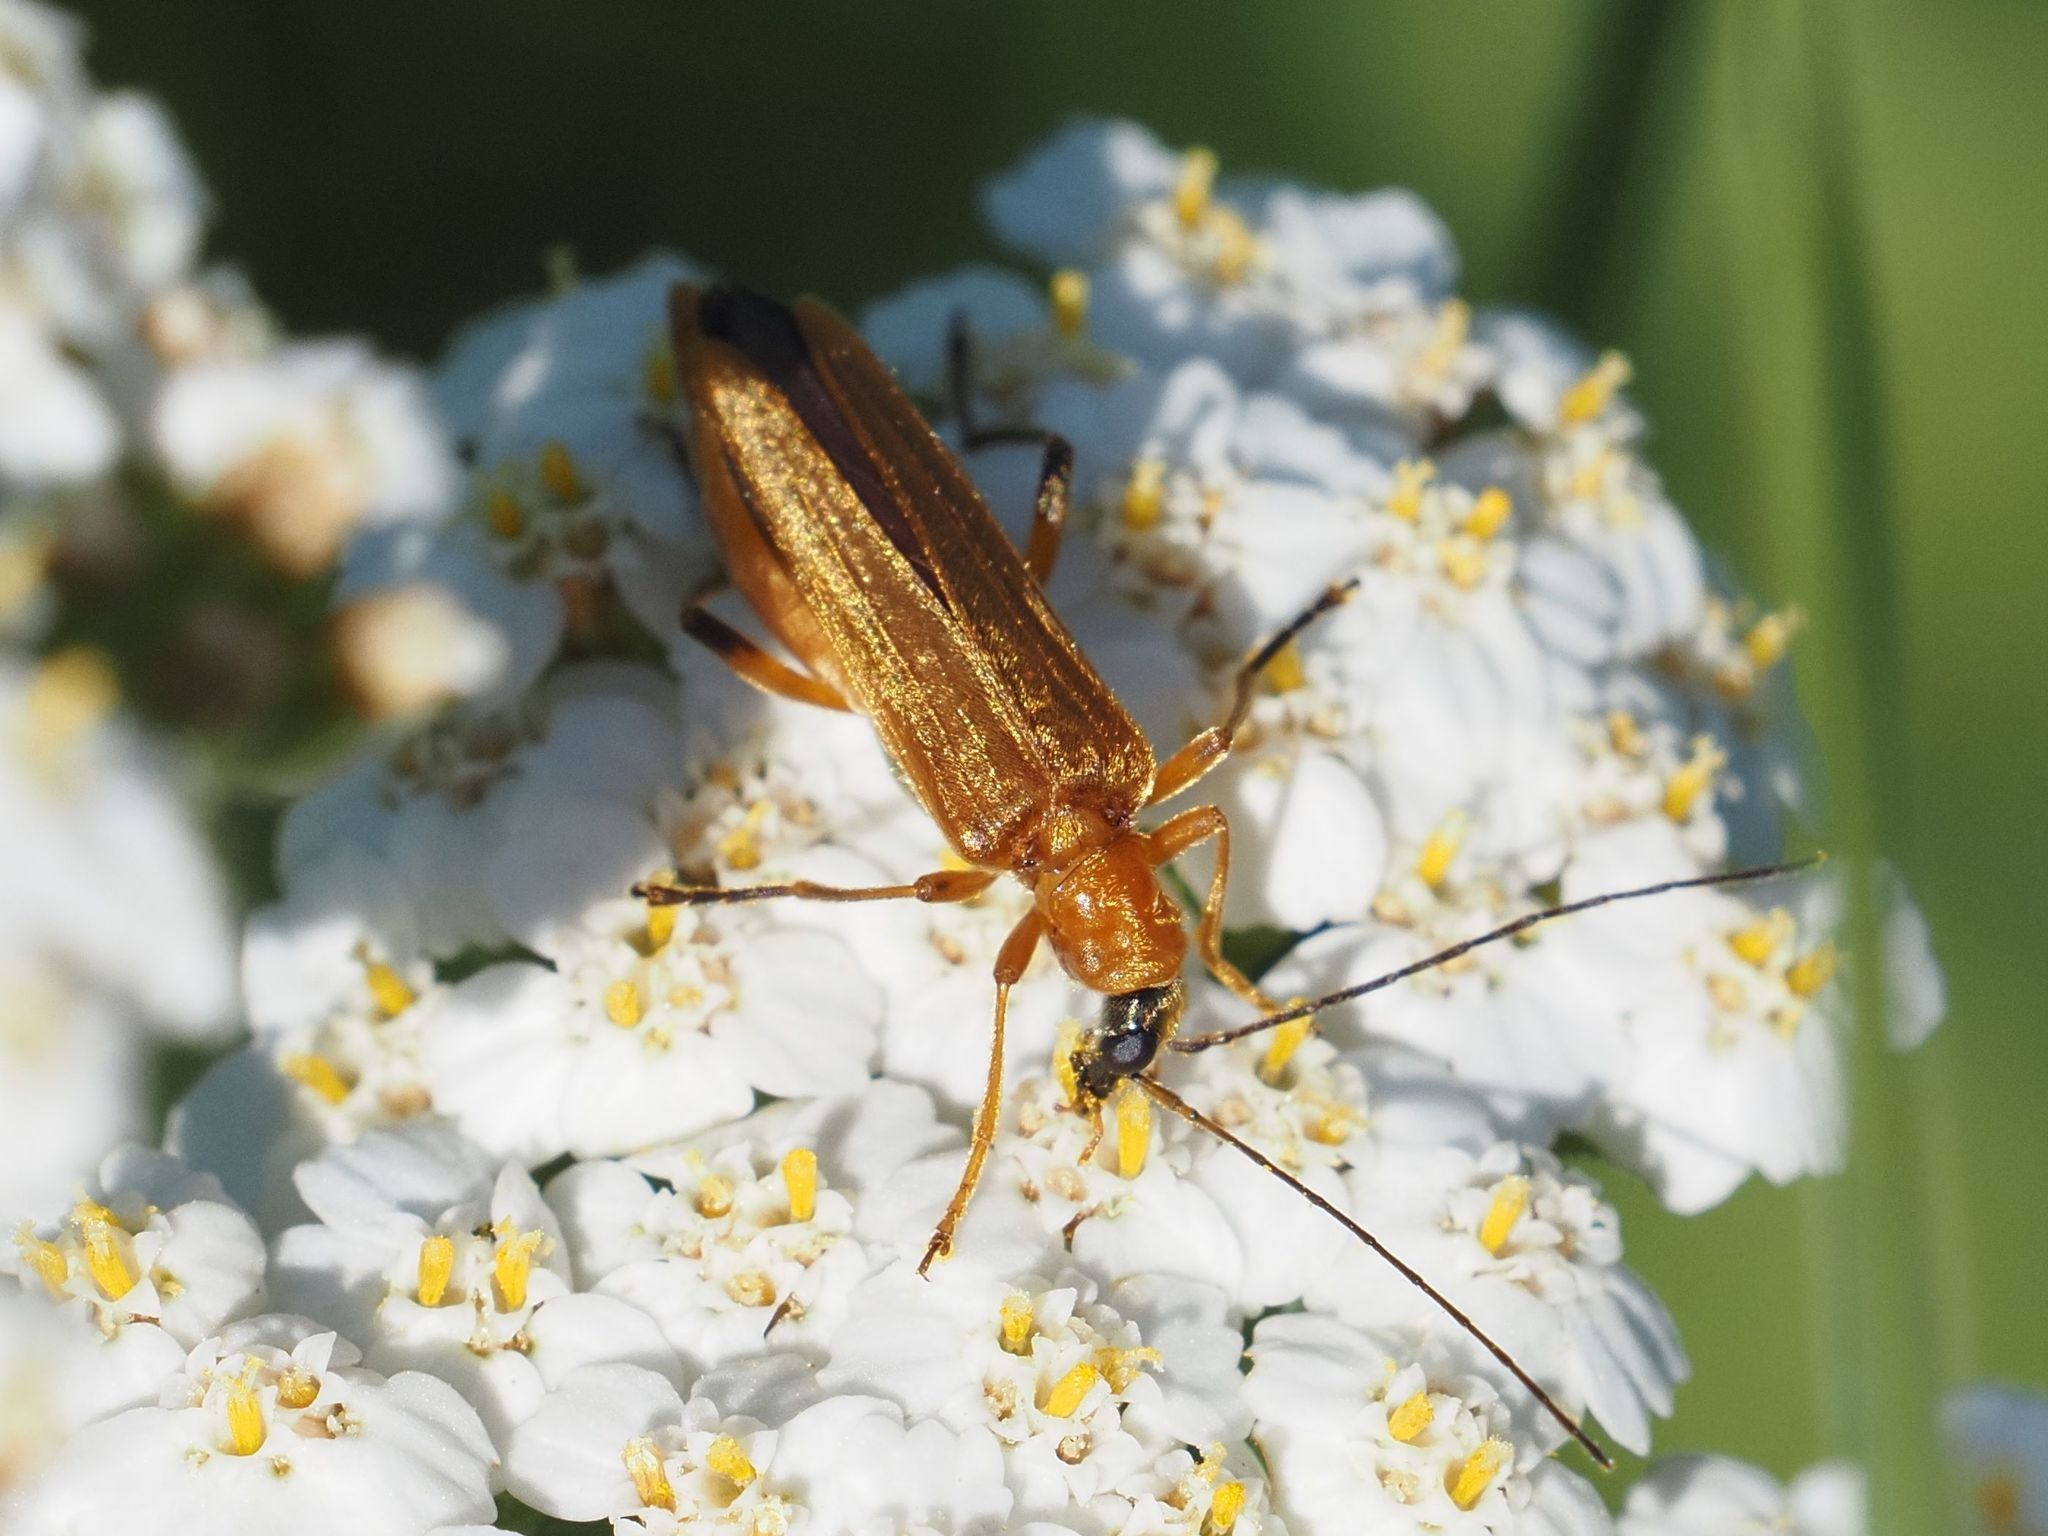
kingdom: Animalia
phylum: Arthropoda
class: Insecta
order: Coleoptera
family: Oedemeridae
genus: Oedemera
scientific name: Oedemera podagrariae
